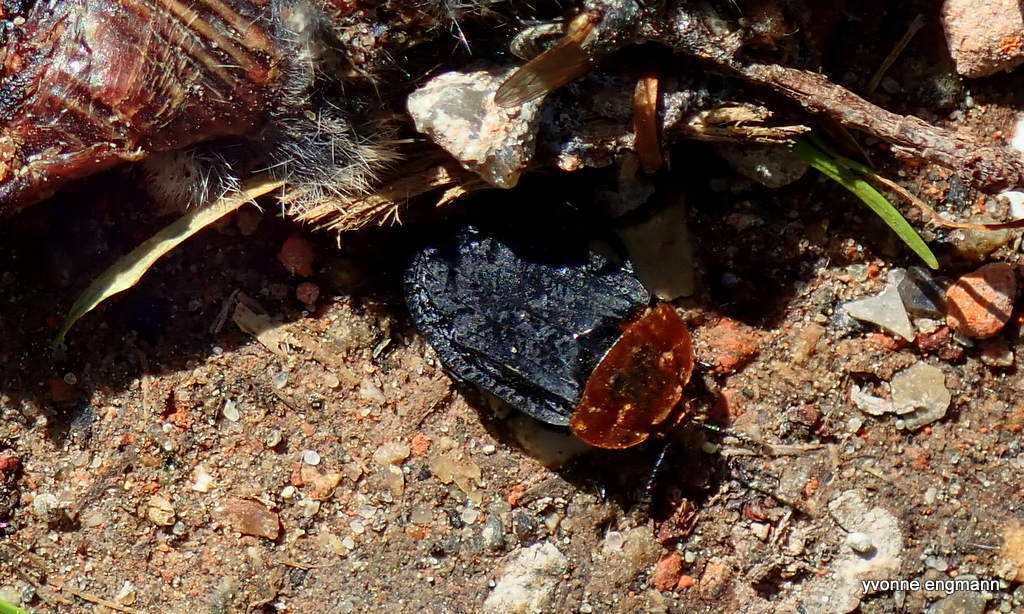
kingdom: Animalia
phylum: Arthropoda
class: Insecta
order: Coleoptera
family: Staphylinidae
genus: Oiceoptoma
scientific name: Oiceoptoma thoracicum
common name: Red-breasted carrion beetle
